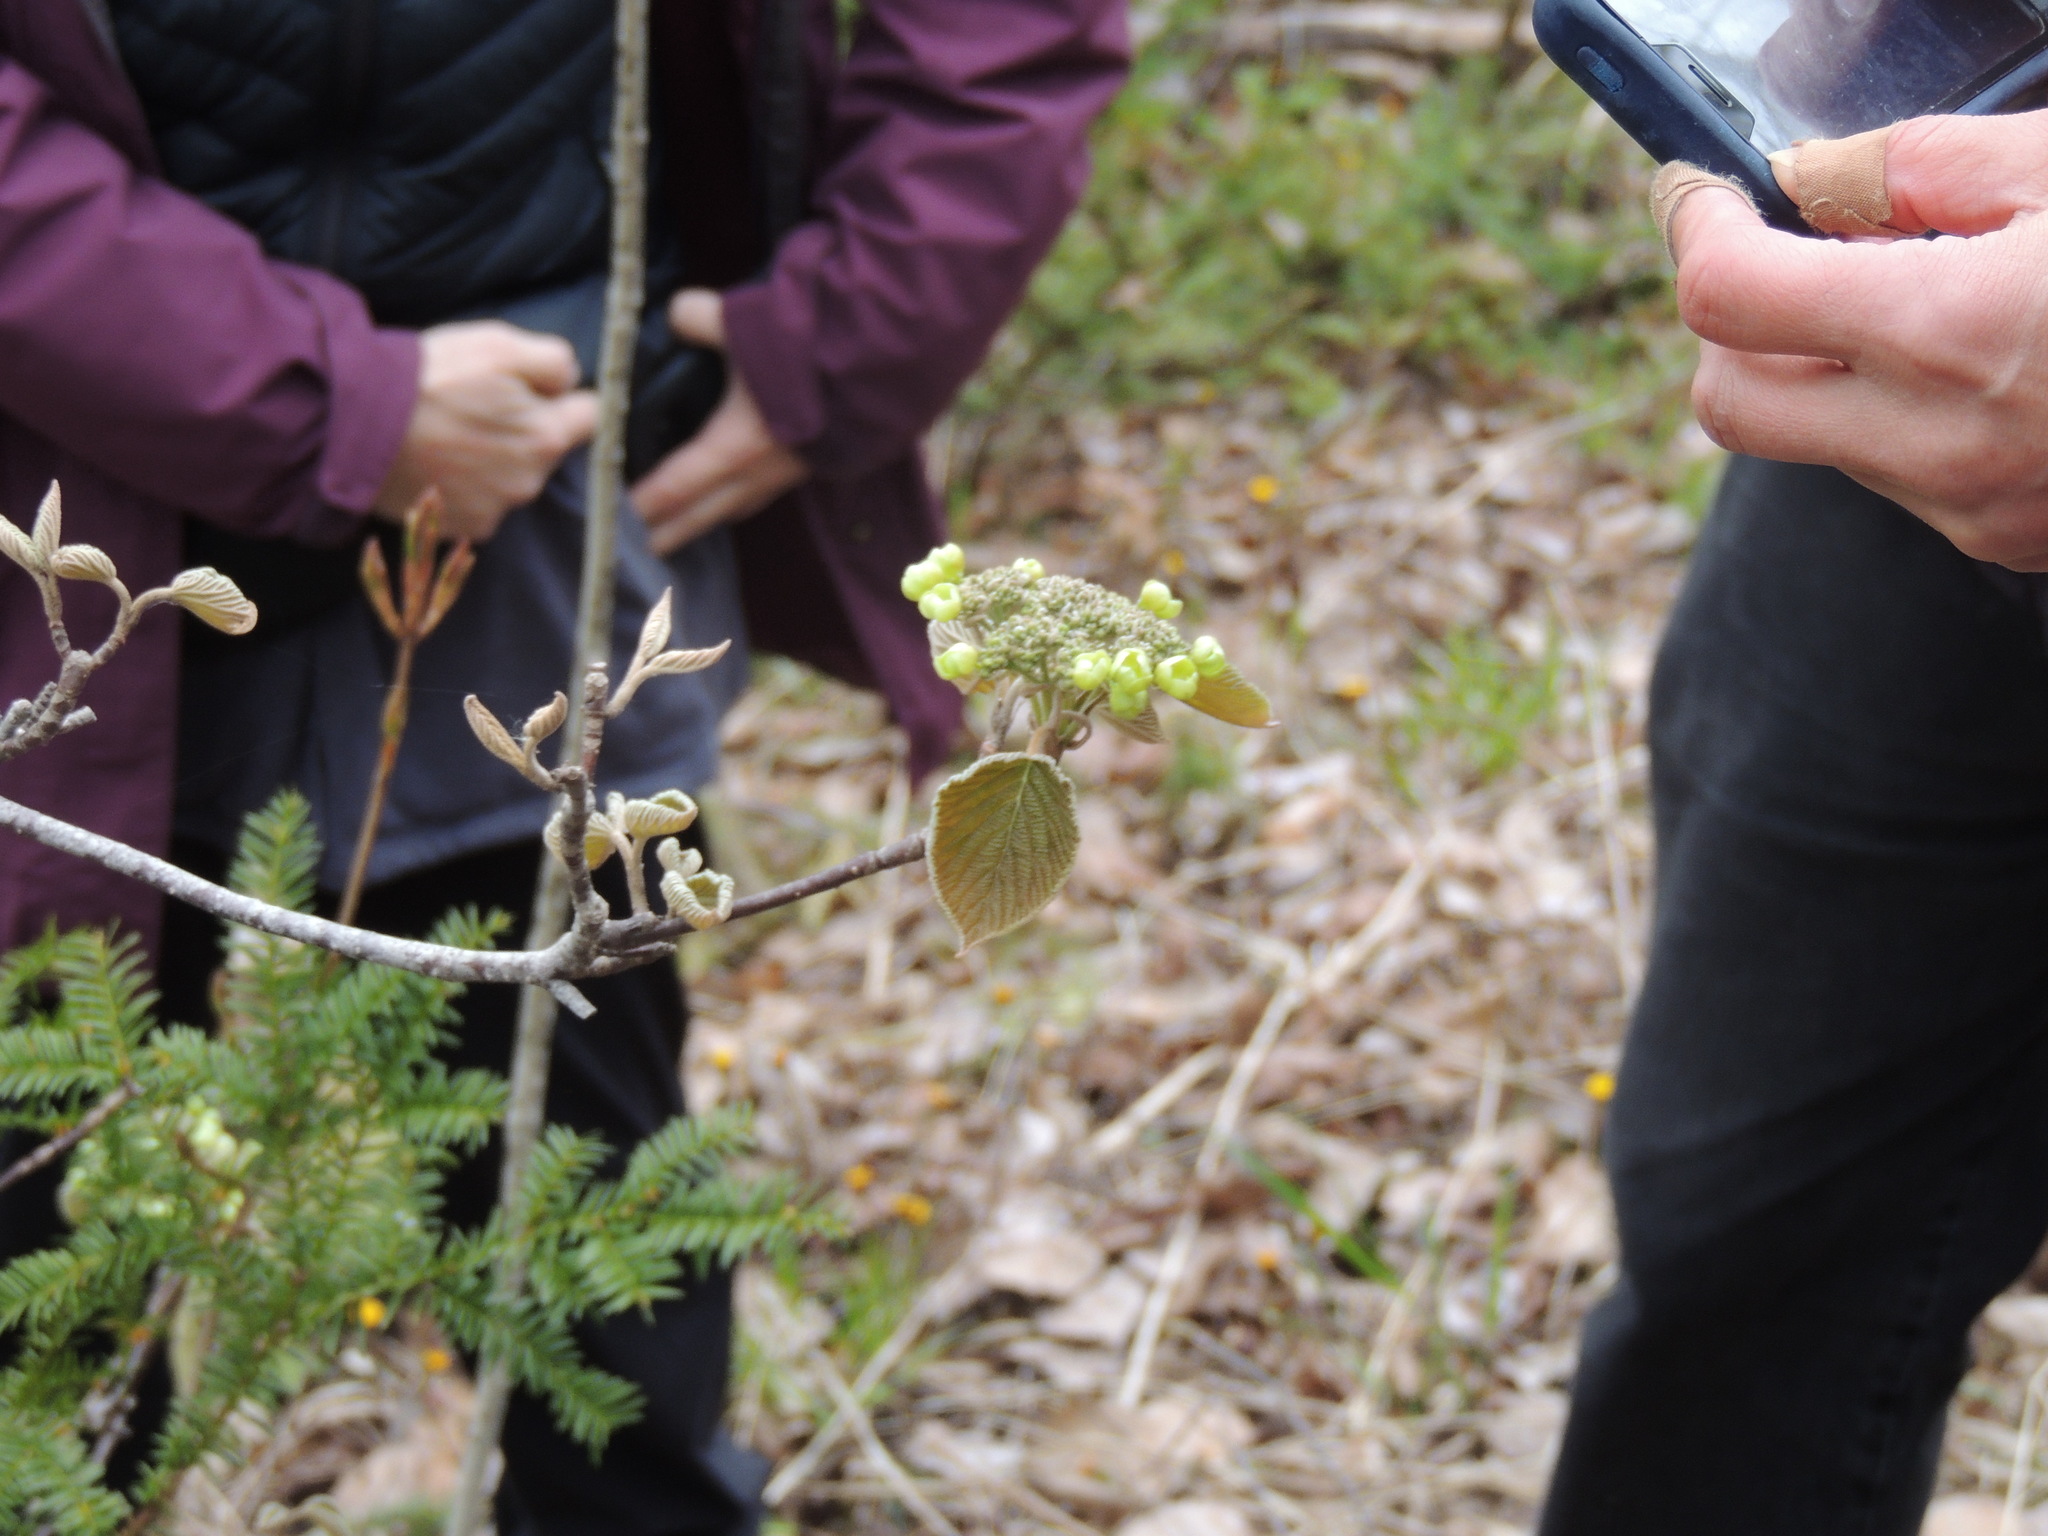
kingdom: Plantae
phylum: Tracheophyta
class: Magnoliopsida
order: Dipsacales
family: Viburnaceae
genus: Viburnum
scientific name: Viburnum lantanoides
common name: Hobblebush
